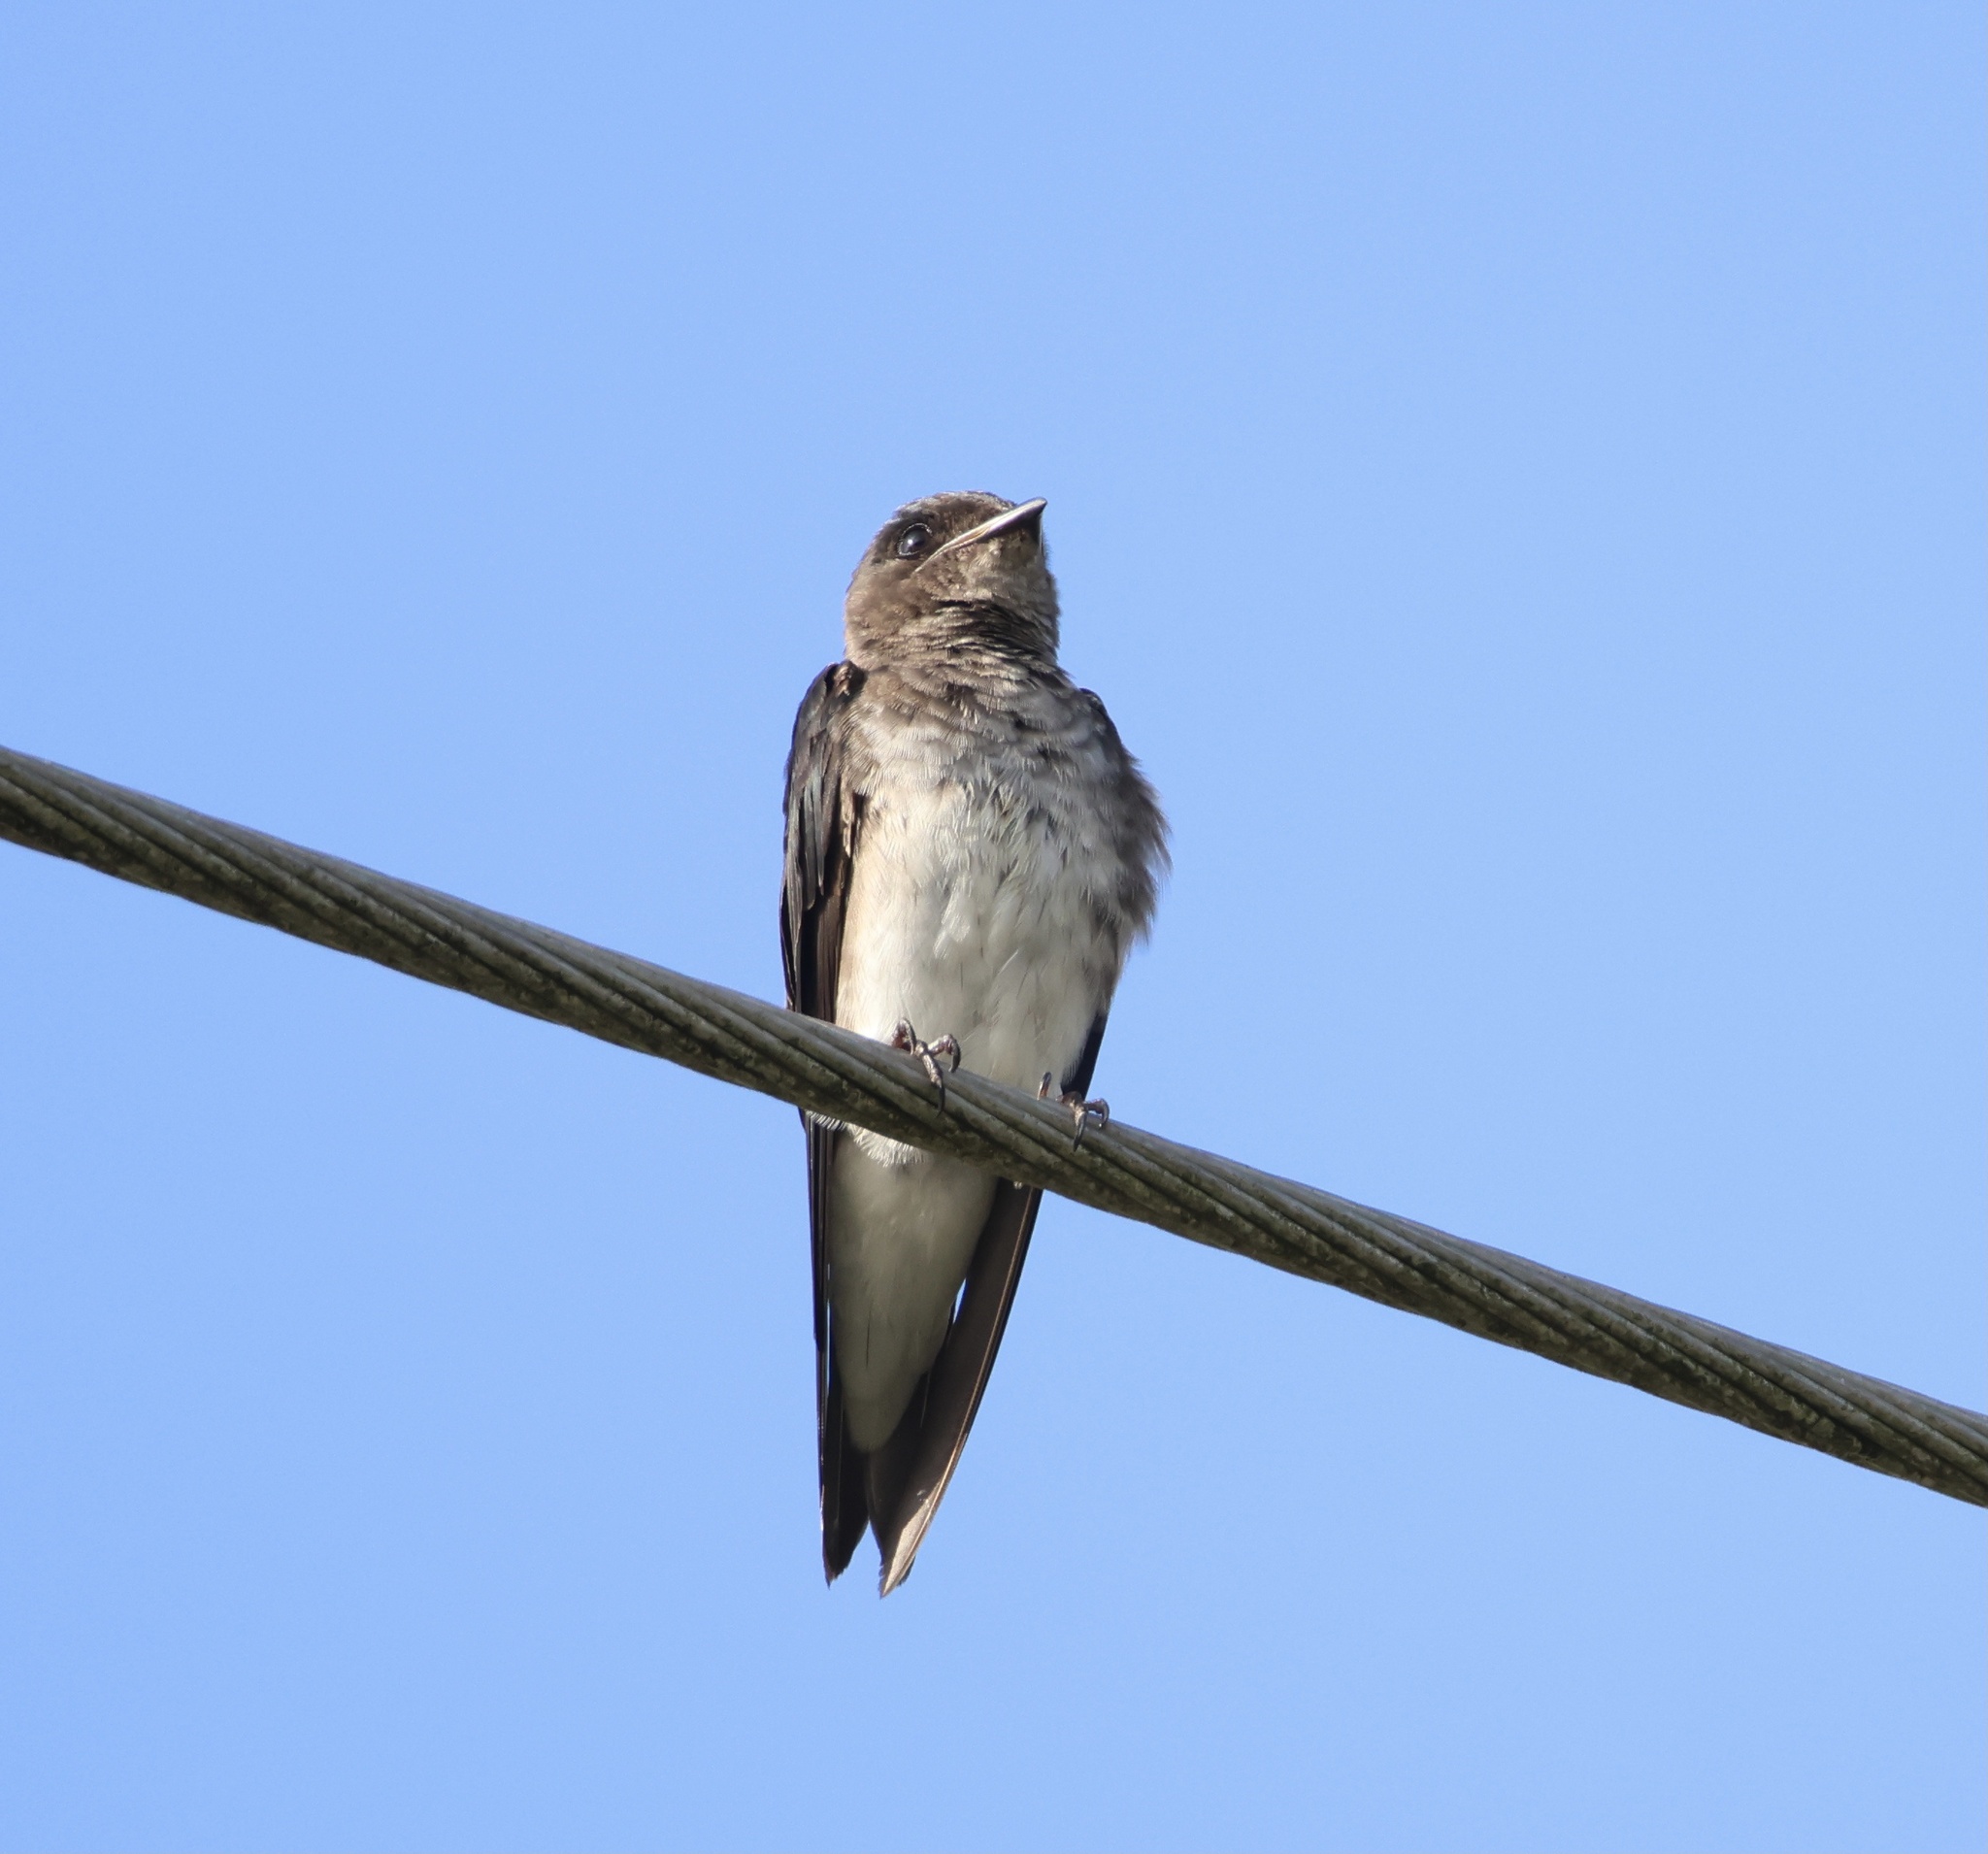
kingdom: Animalia
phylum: Chordata
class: Aves
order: Passeriformes
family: Hirundinidae
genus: Progne
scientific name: Progne chalybea
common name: Grey-breasted martin
